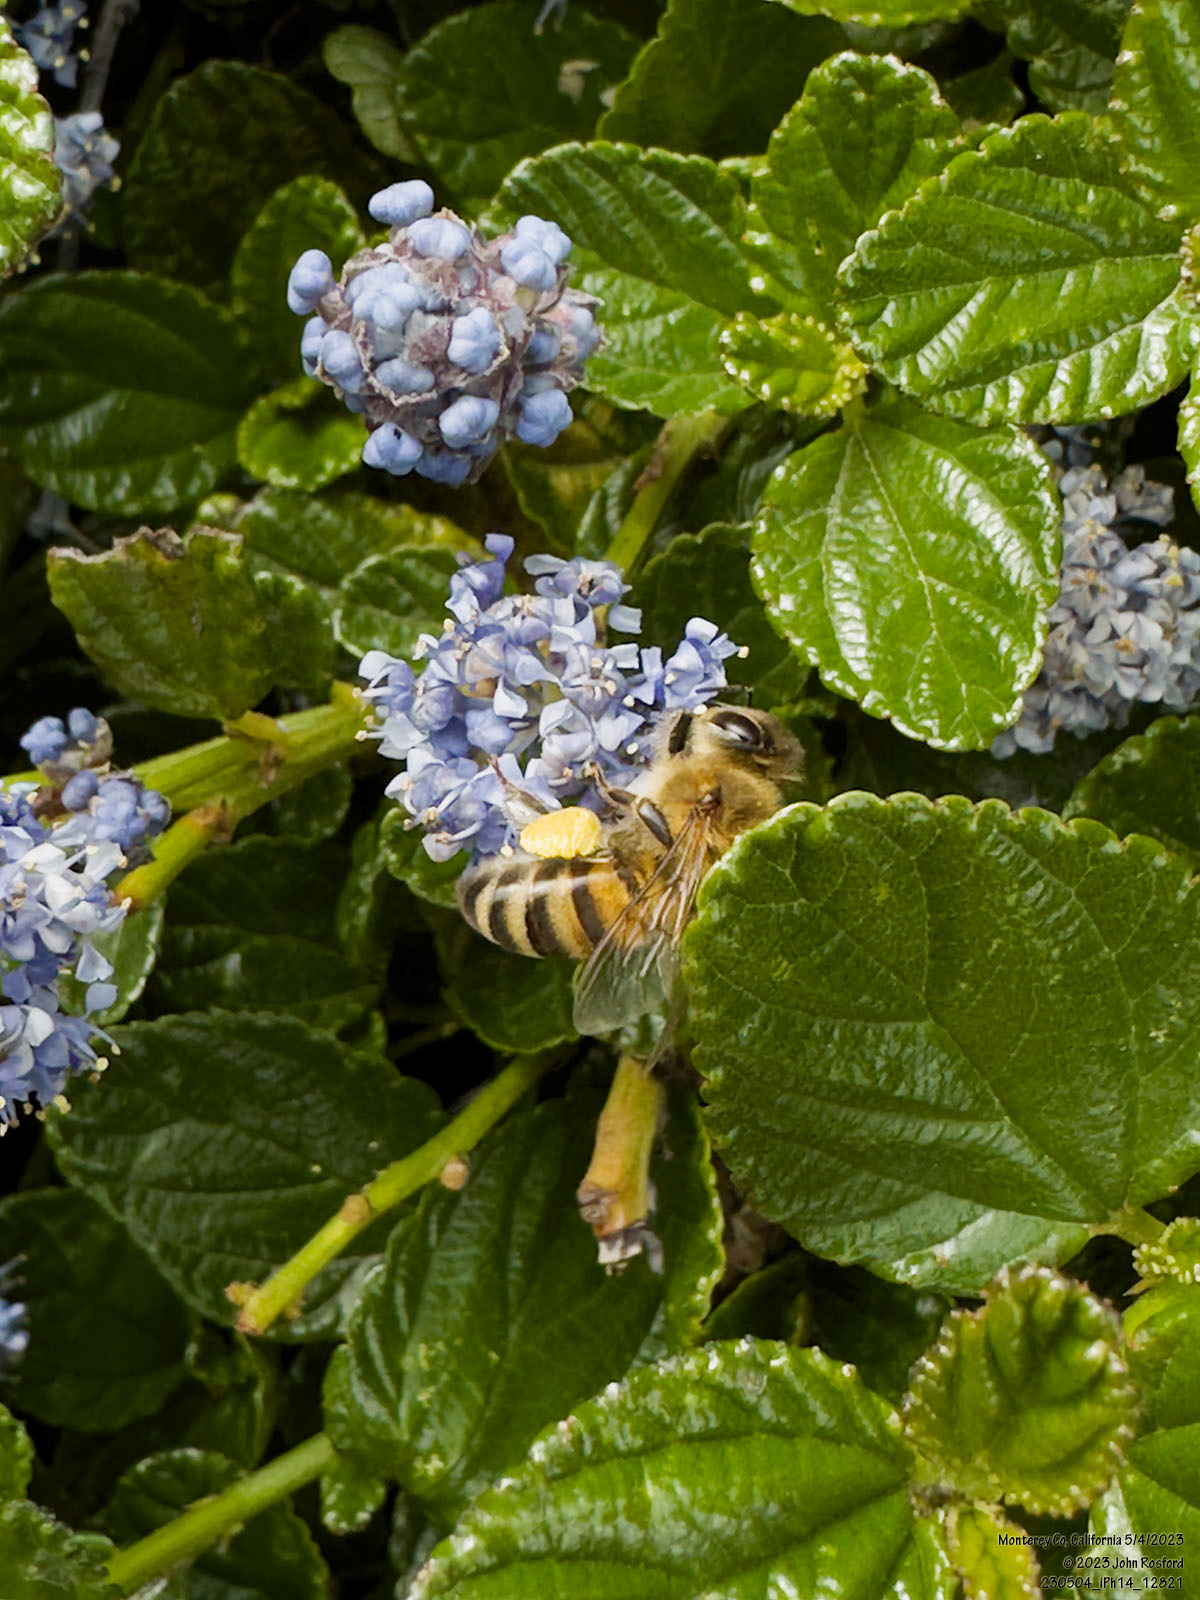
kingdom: Plantae
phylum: Tracheophyta
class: Magnoliopsida
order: Rosales
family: Rhamnaceae
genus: Ceanothus
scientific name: Ceanothus thyrsiflorus
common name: California-lilac
